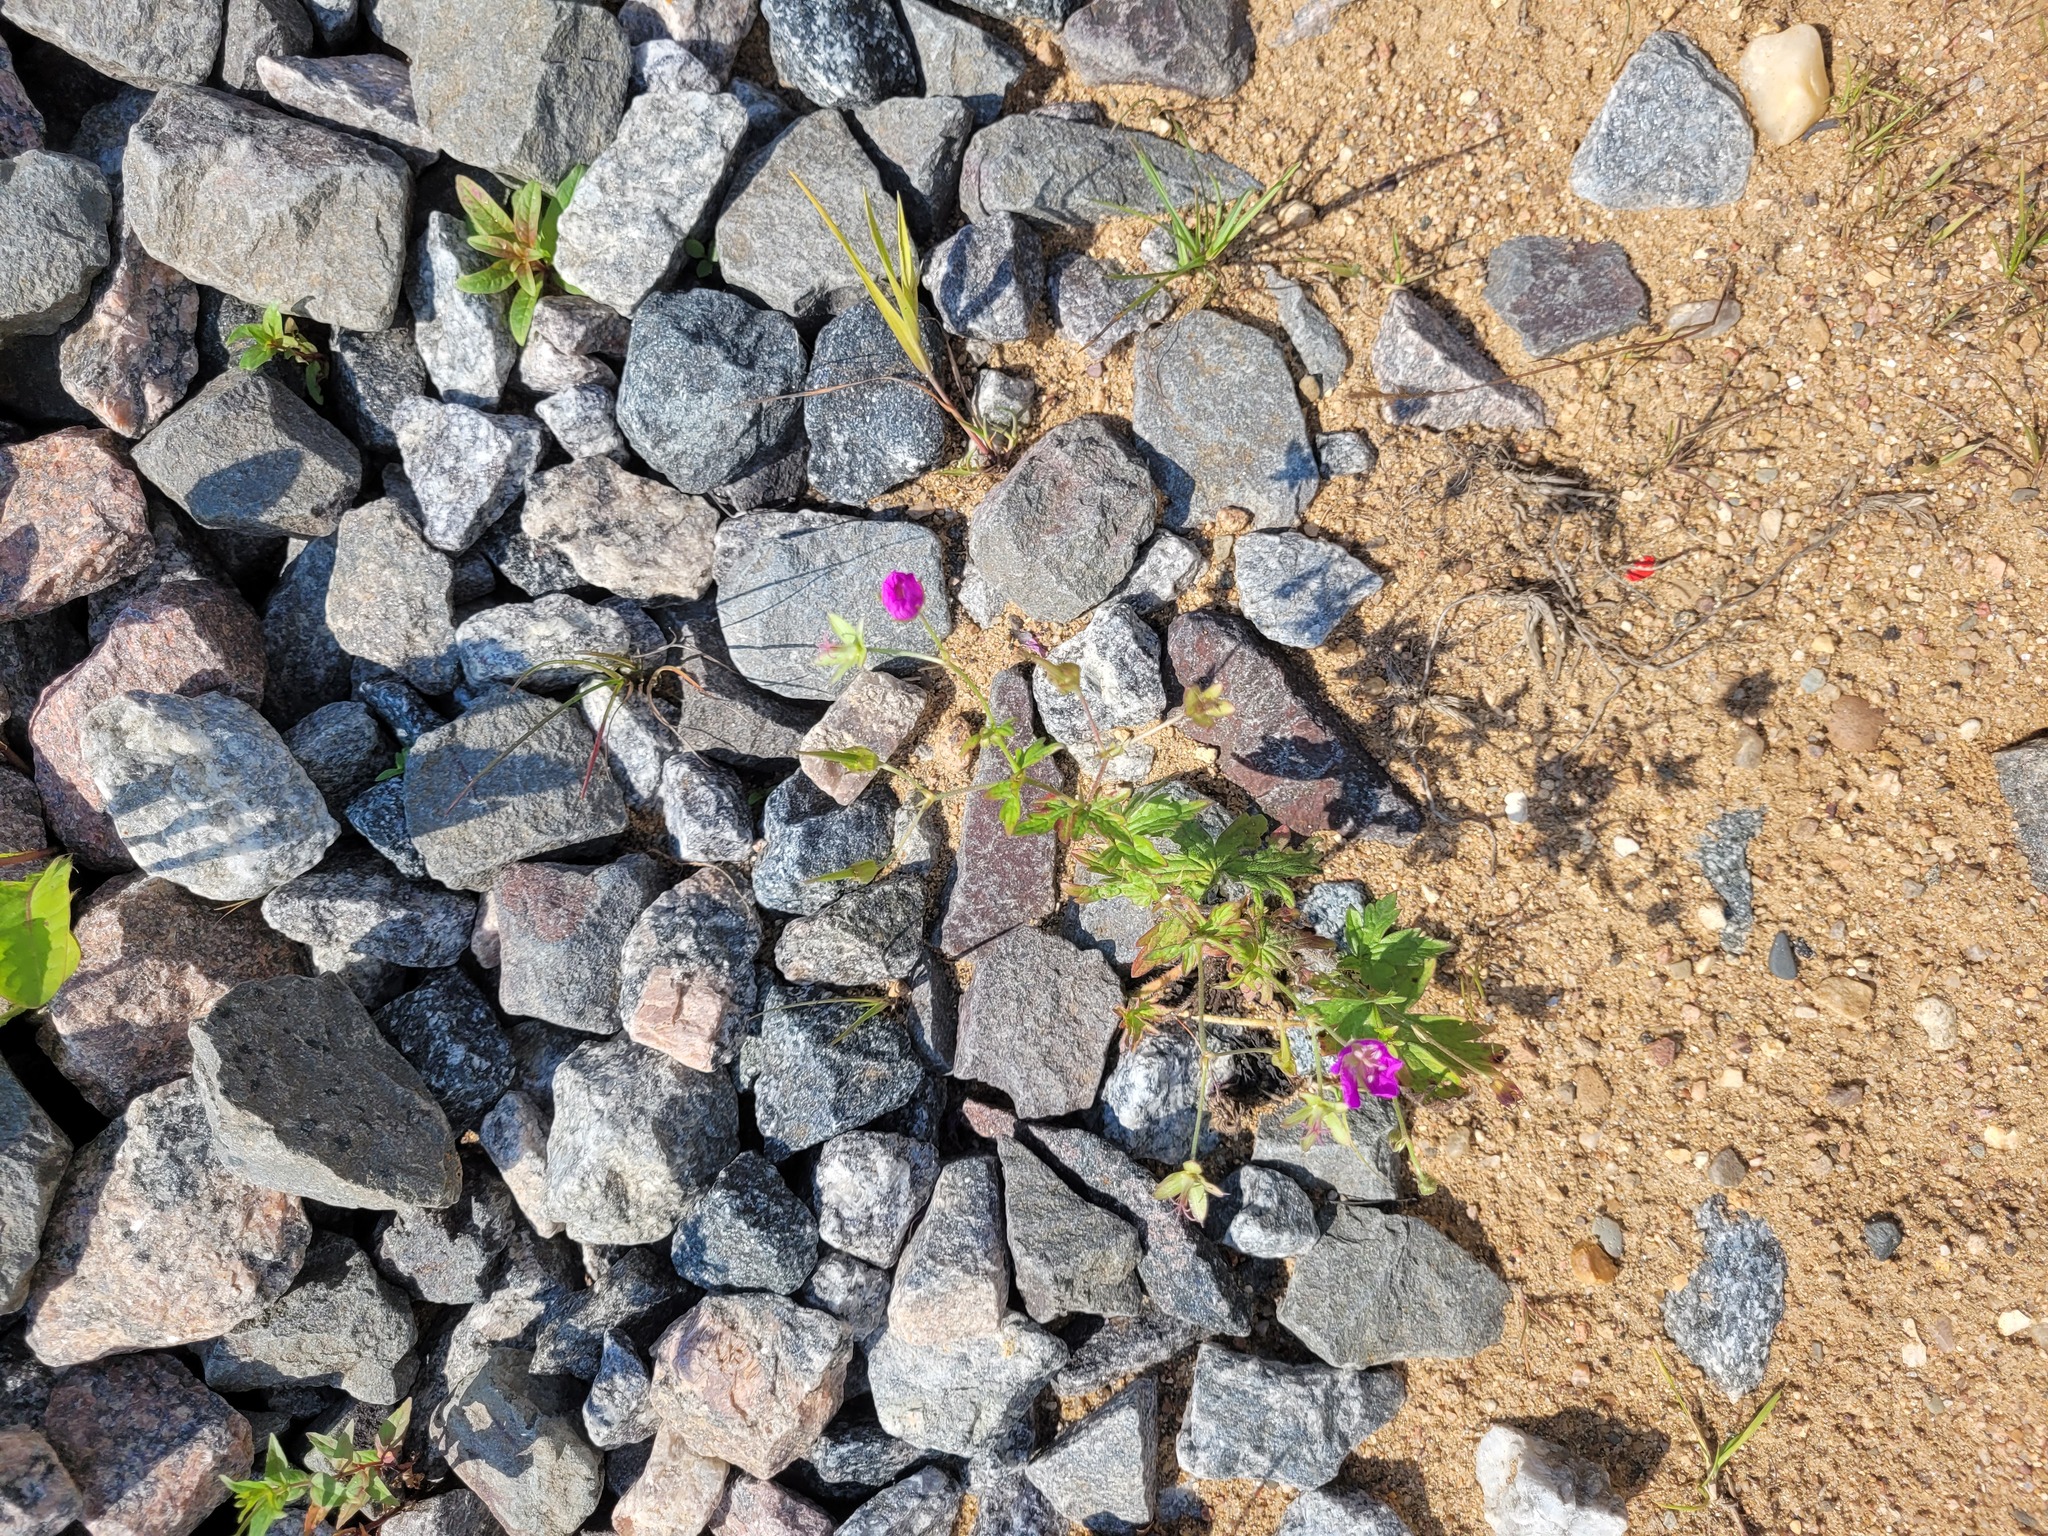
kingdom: Plantae
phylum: Tracheophyta
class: Magnoliopsida
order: Geraniales
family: Geraniaceae
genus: Geranium
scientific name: Geranium palustre
